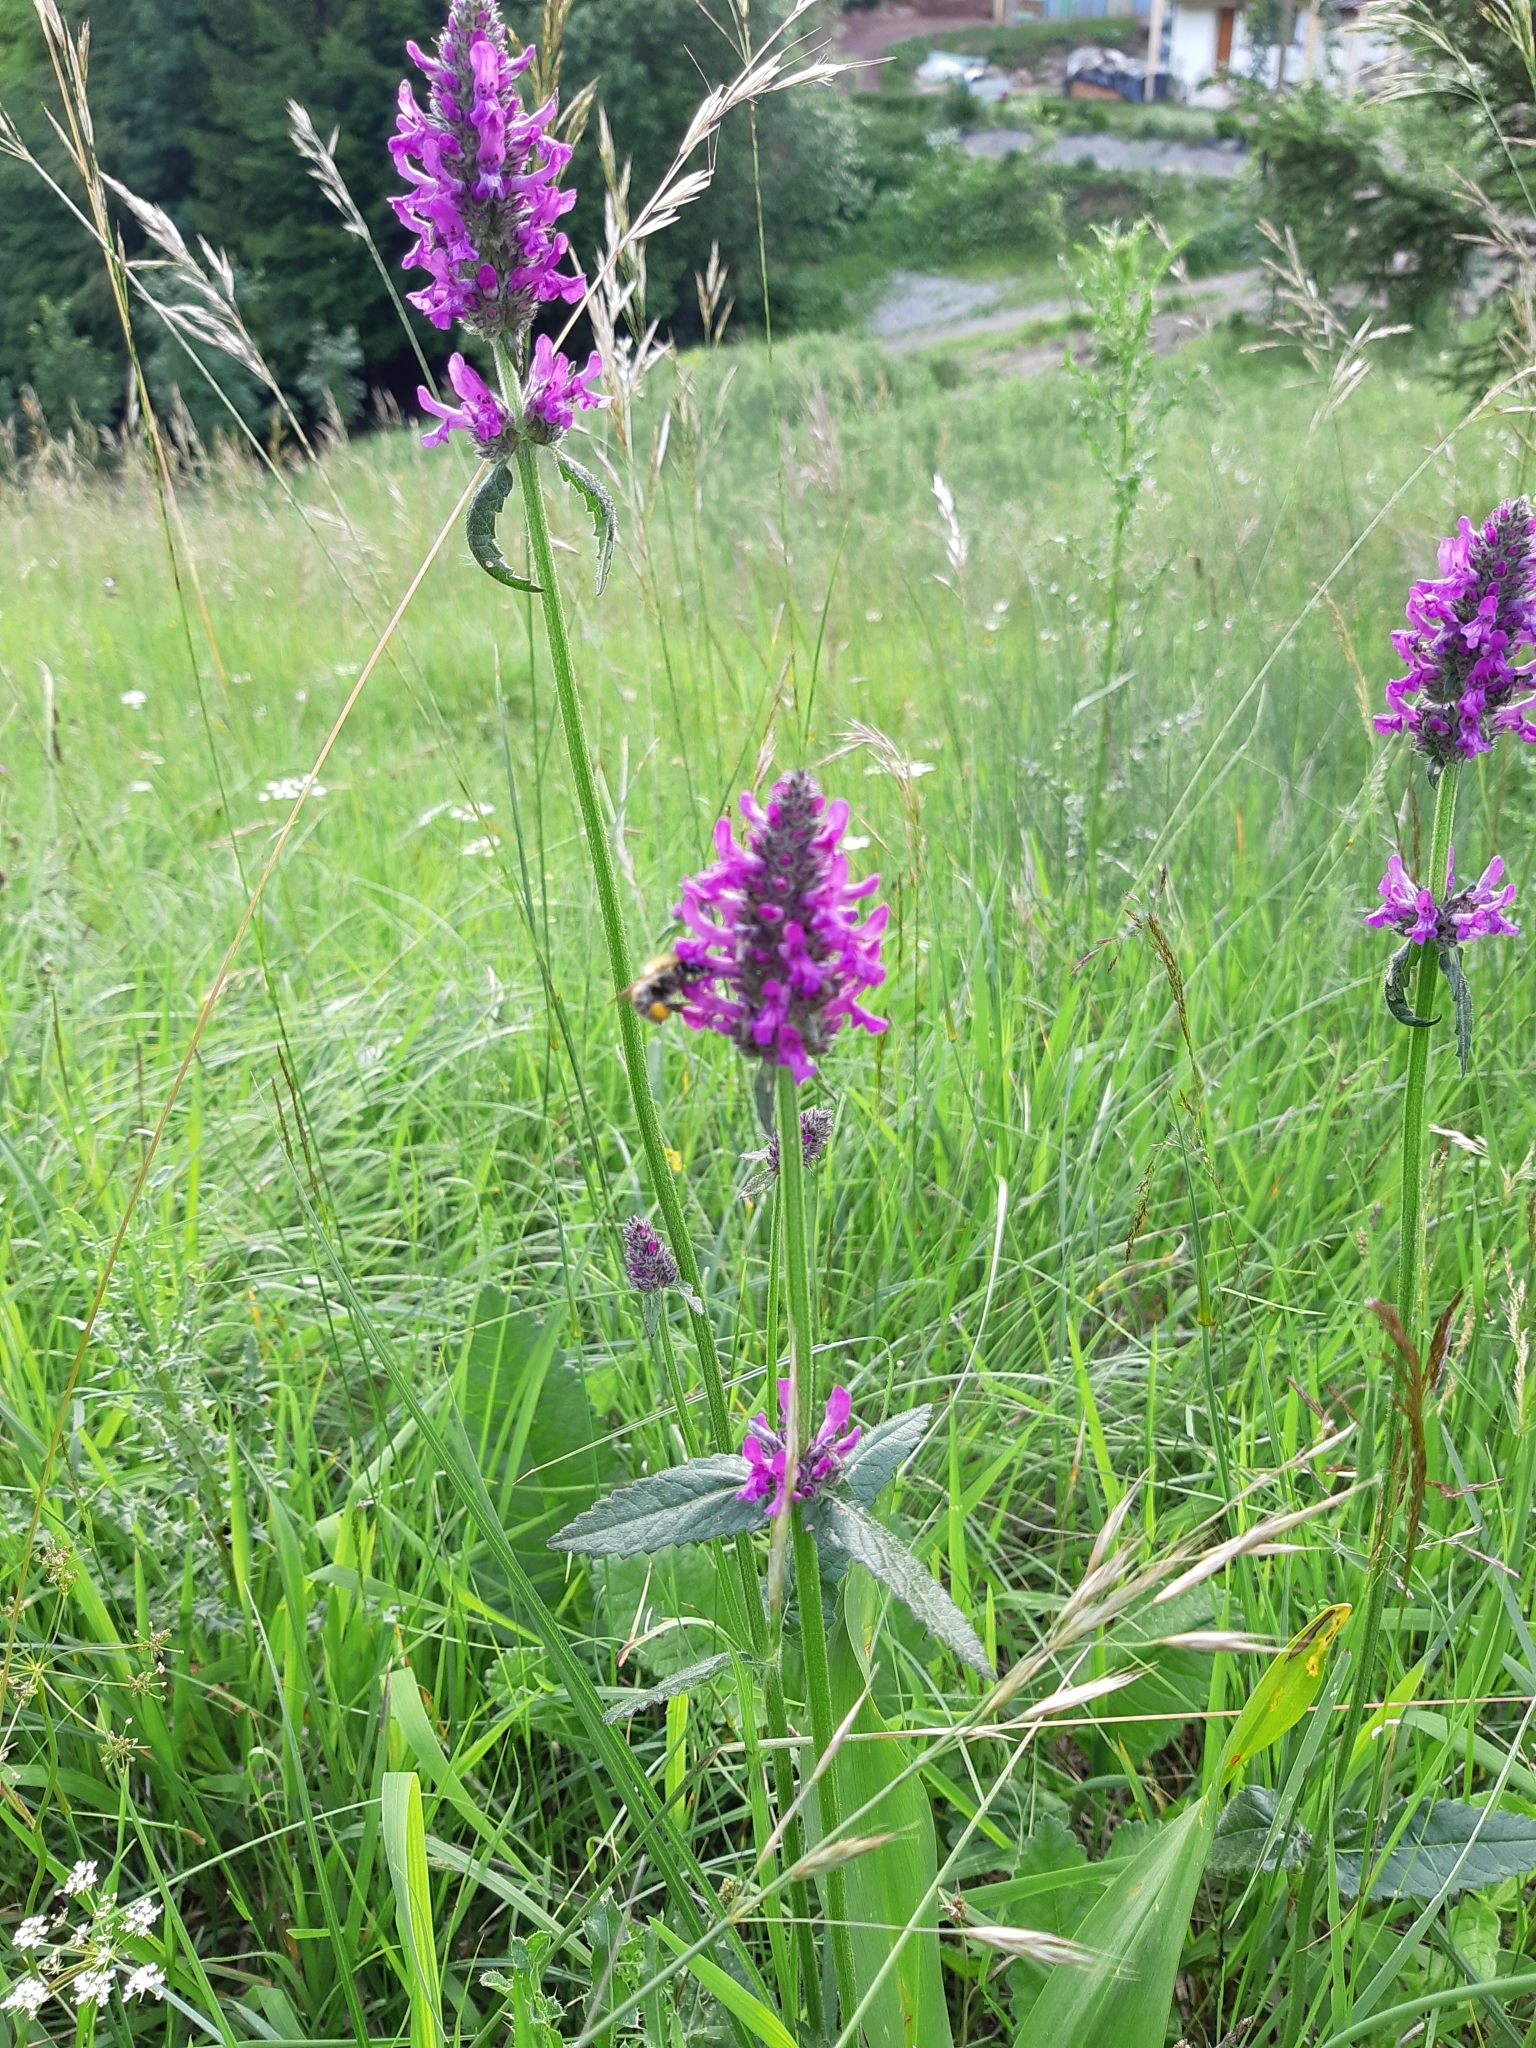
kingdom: Plantae
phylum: Tracheophyta
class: Magnoliopsida
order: Lamiales
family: Lamiaceae
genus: Betonica
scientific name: Betonica officinalis
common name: Bishop's-wort
